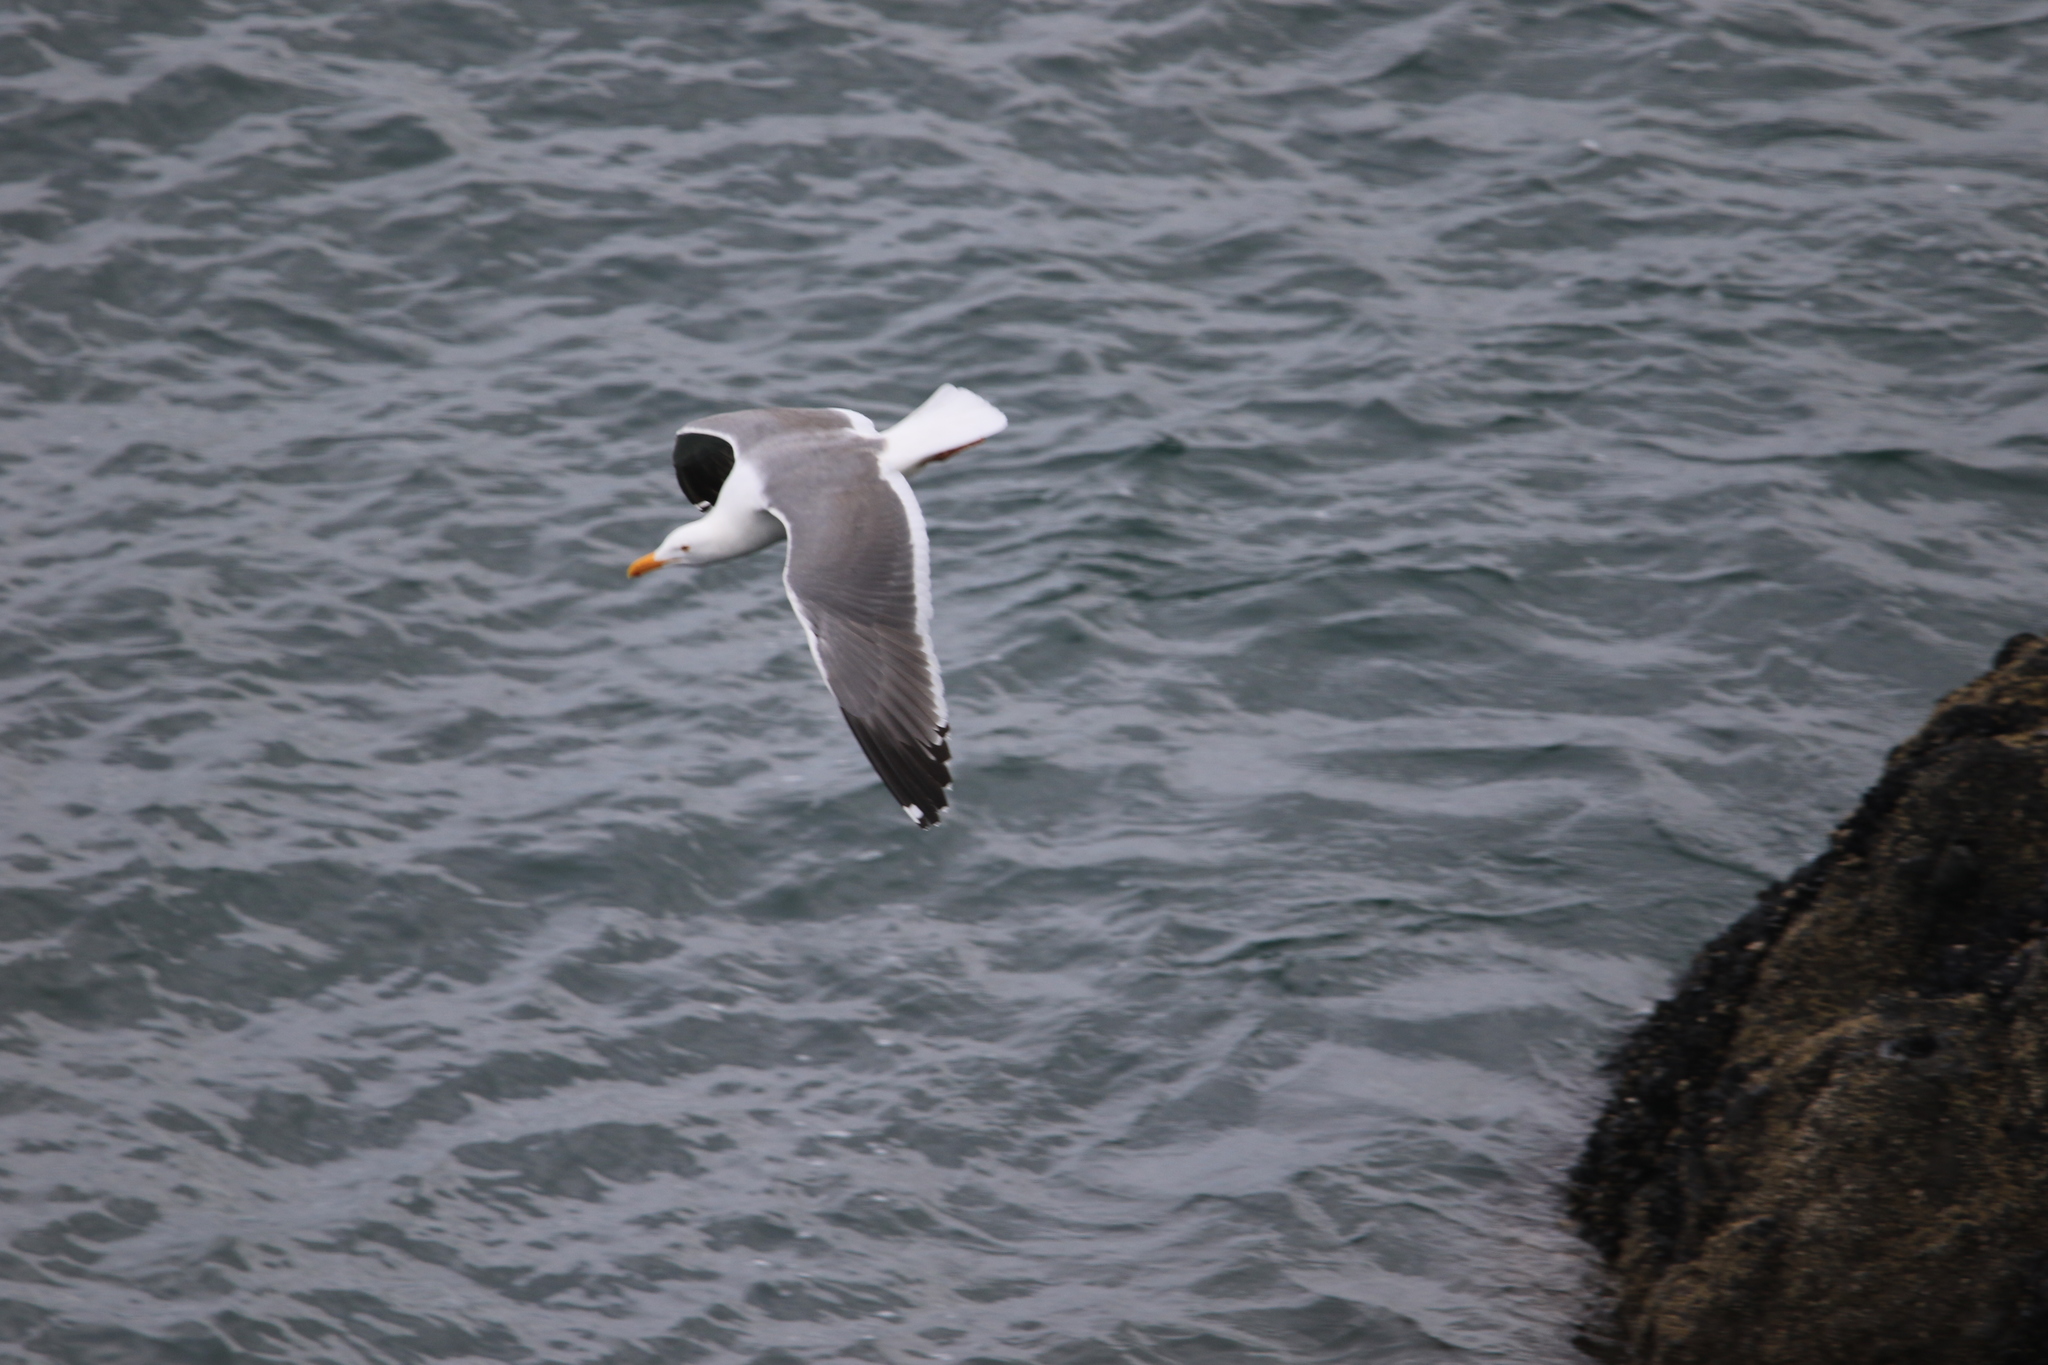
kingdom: Animalia
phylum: Chordata
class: Aves
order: Charadriiformes
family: Laridae
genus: Larus
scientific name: Larus occidentalis
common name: Western gull
